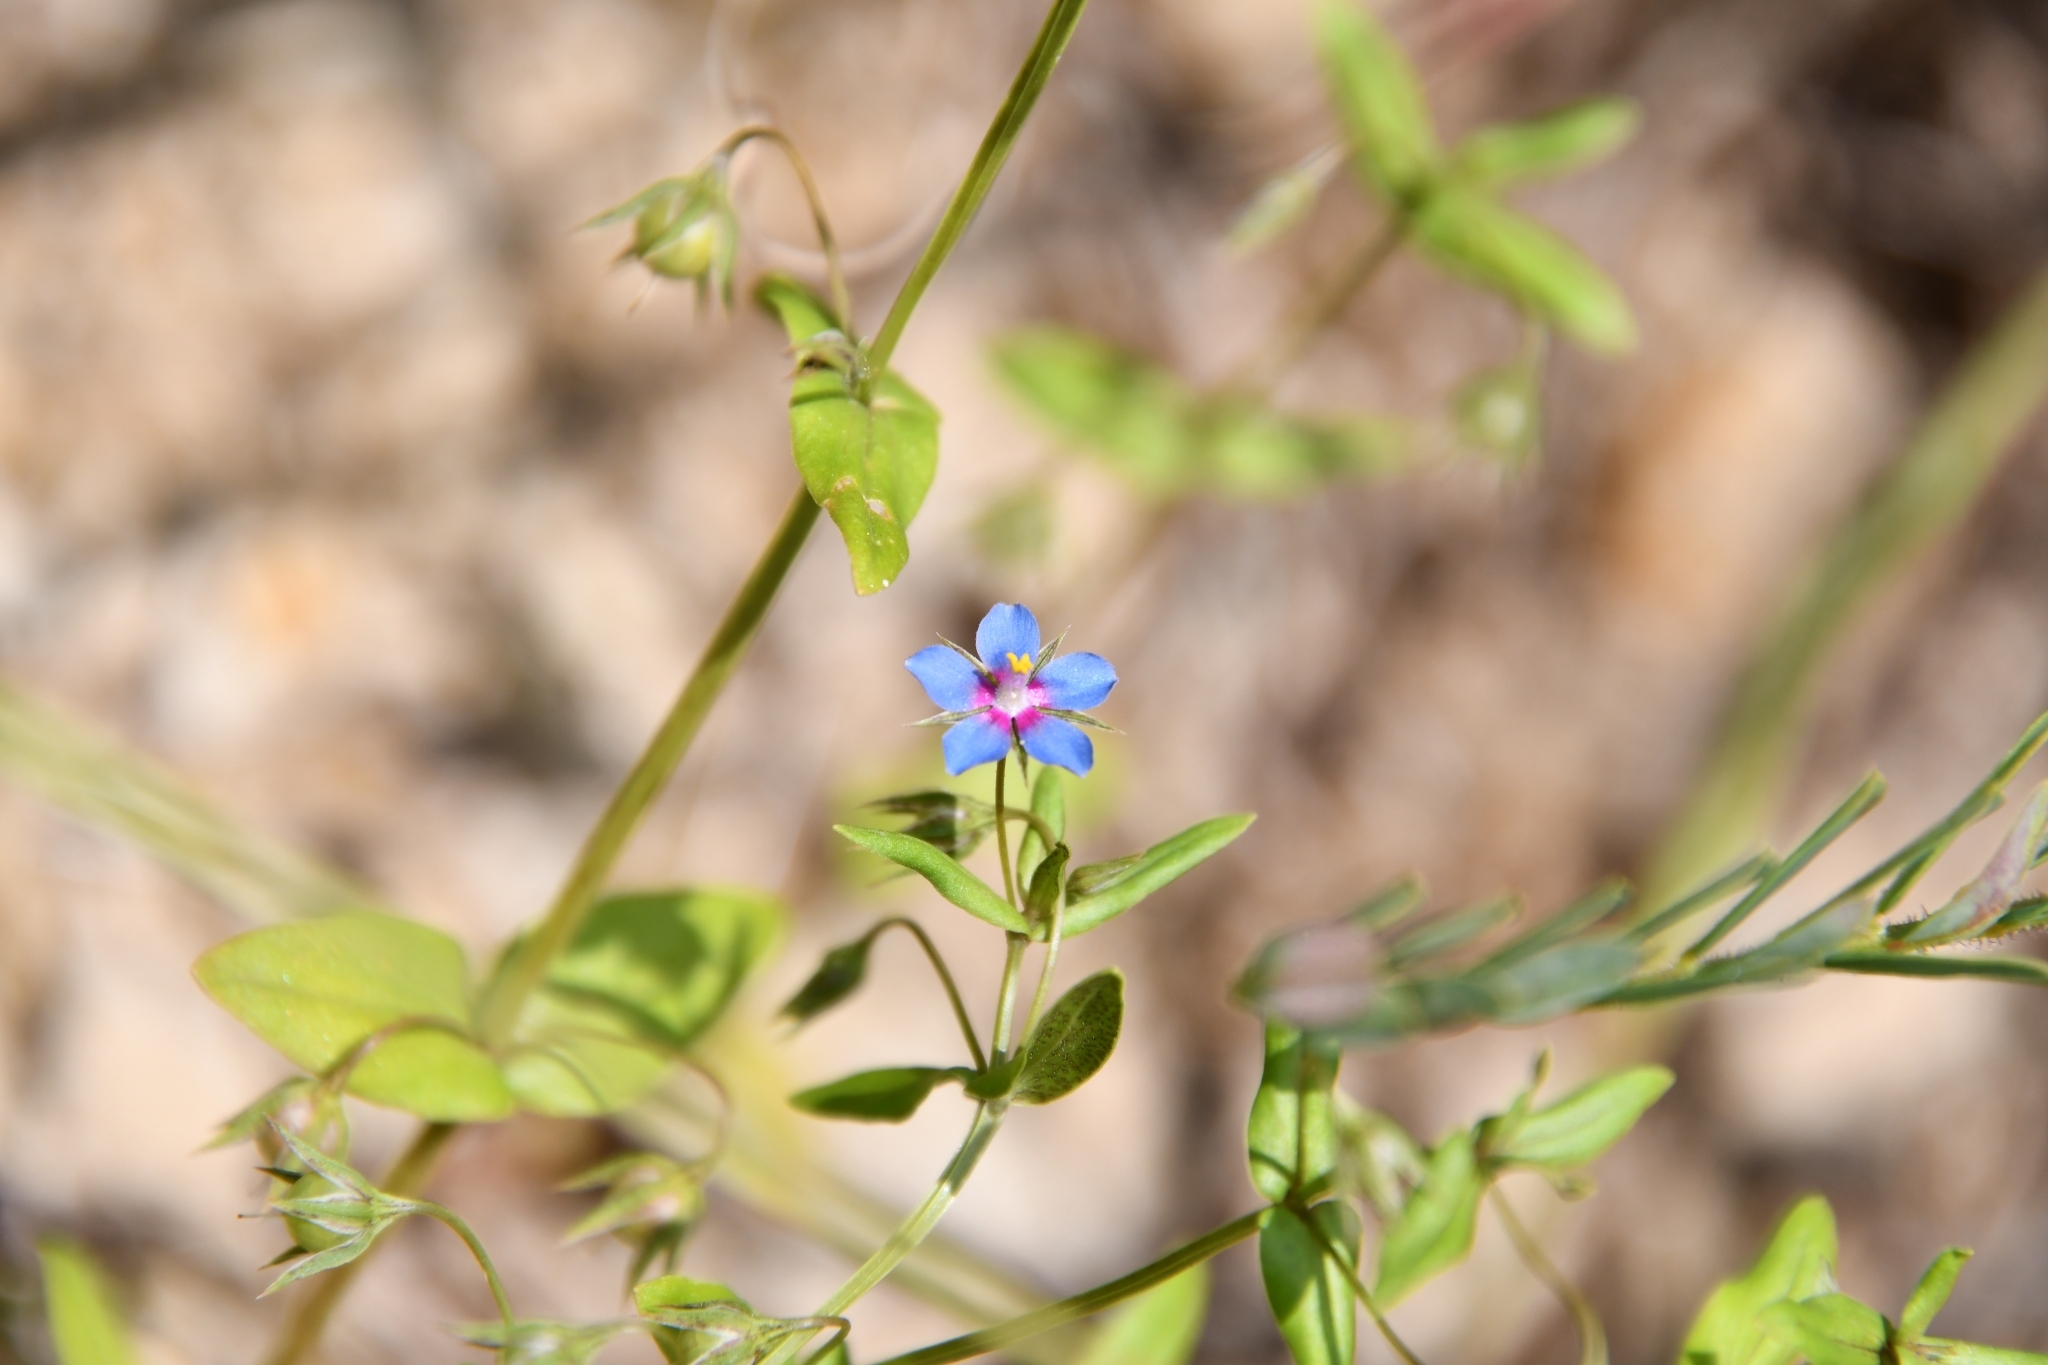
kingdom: Plantae
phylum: Tracheophyta
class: Magnoliopsida
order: Ericales
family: Primulaceae
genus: Lysimachia
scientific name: Lysimachia foemina
